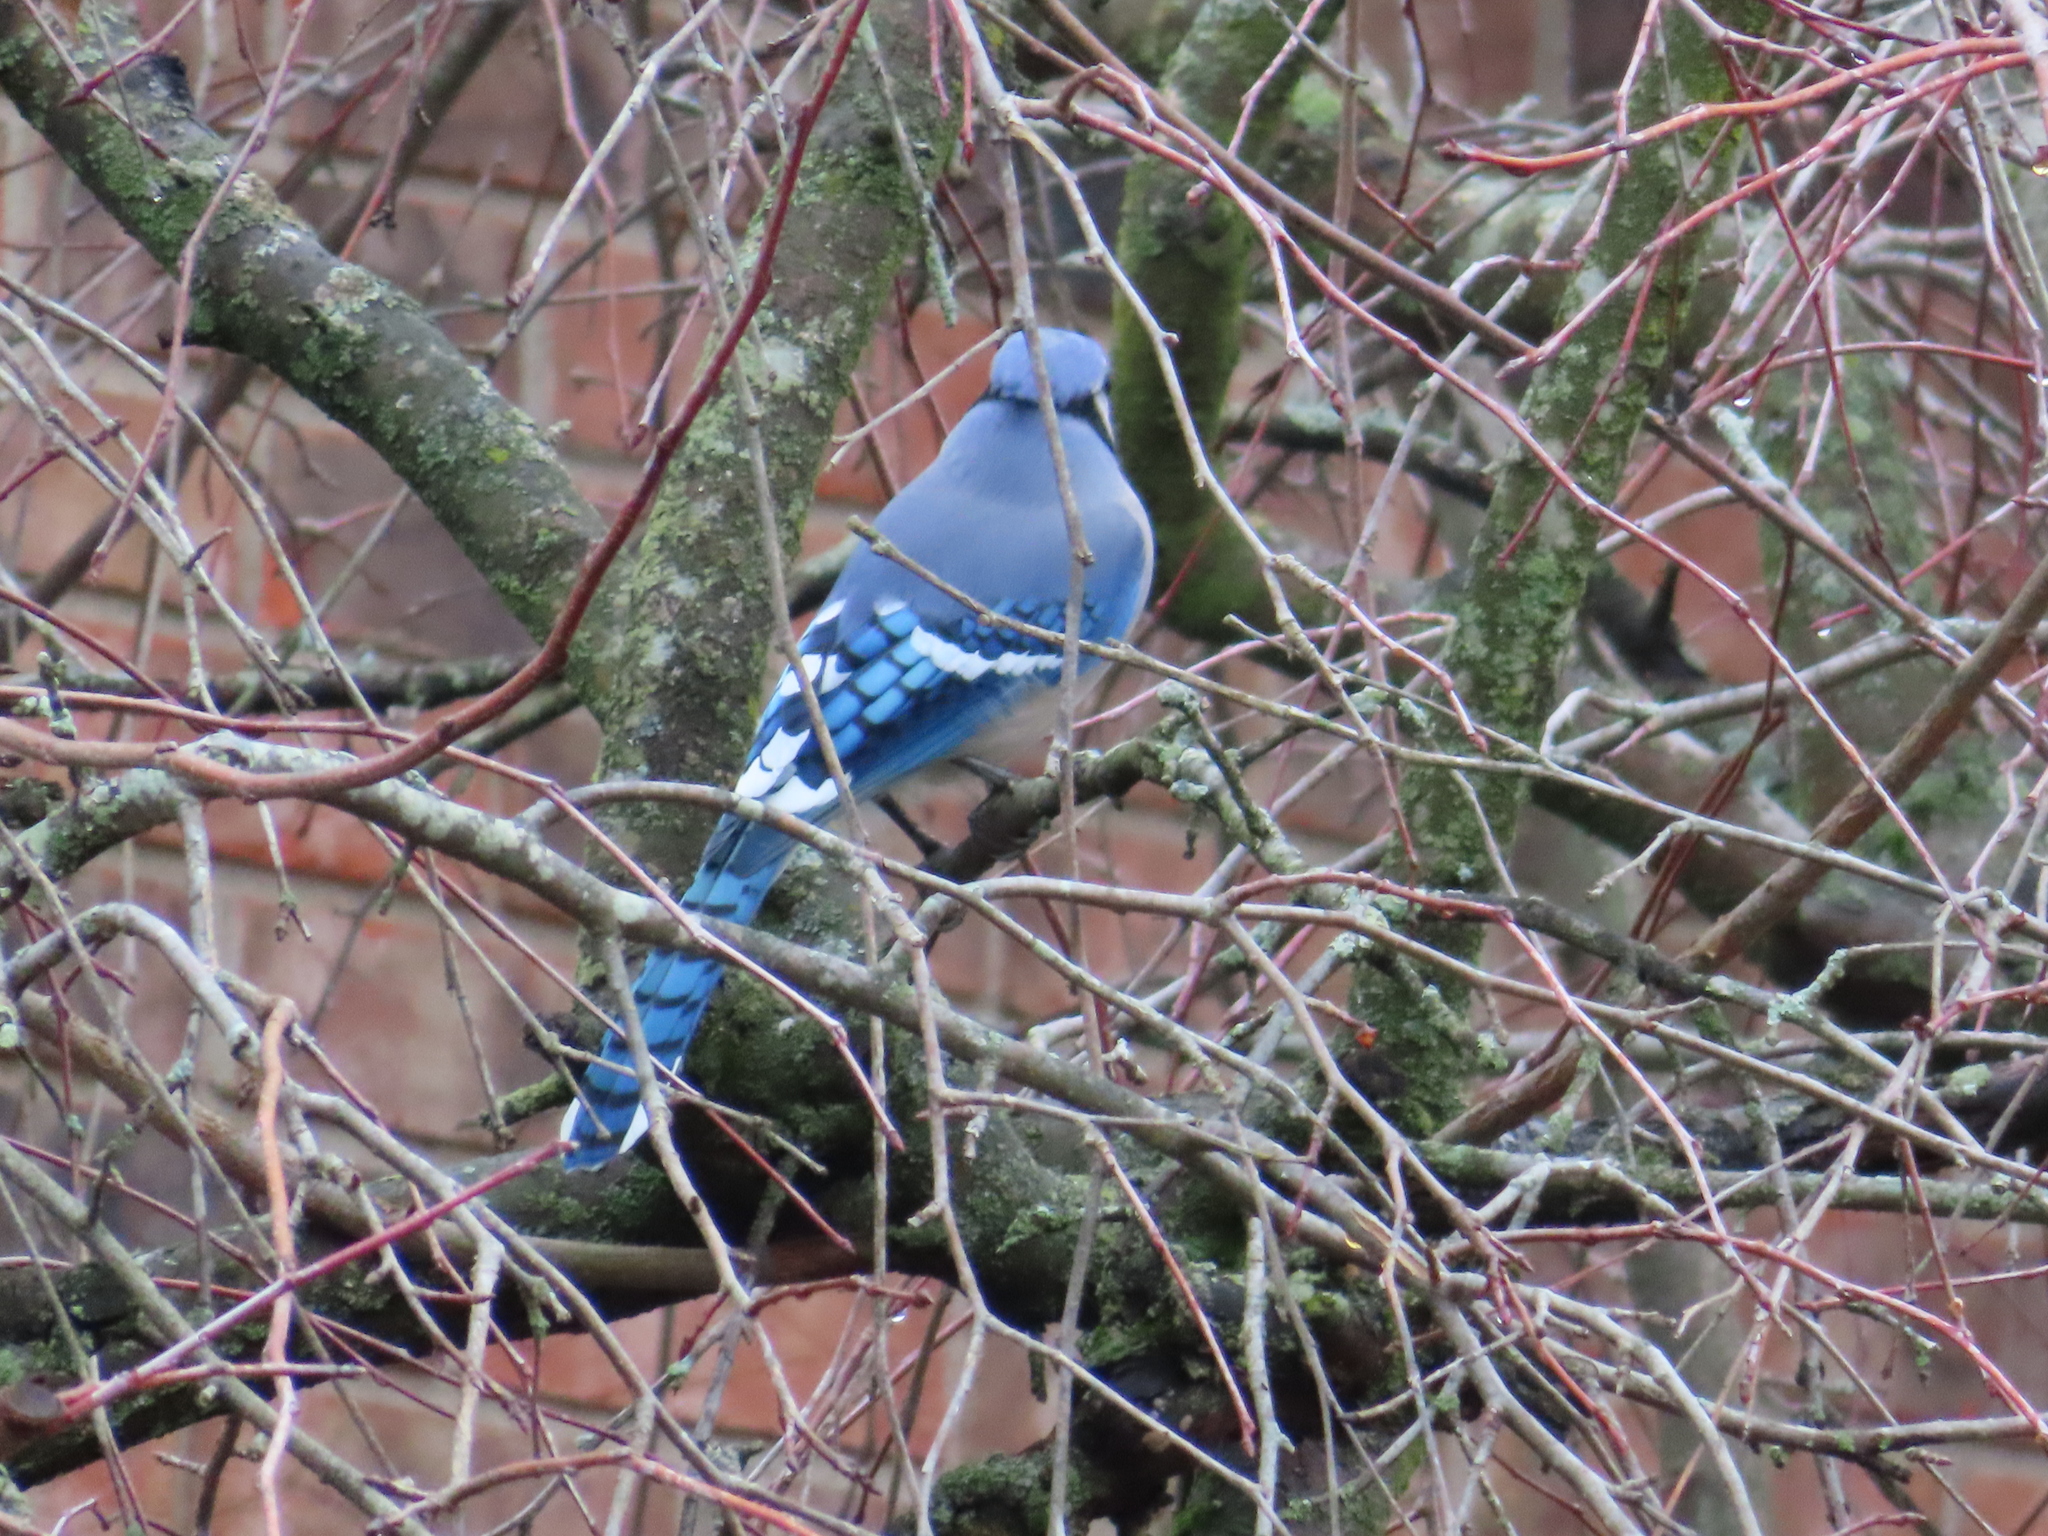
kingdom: Animalia
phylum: Chordata
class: Aves
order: Passeriformes
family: Corvidae
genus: Cyanocitta
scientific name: Cyanocitta cristata
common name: Blue jay
